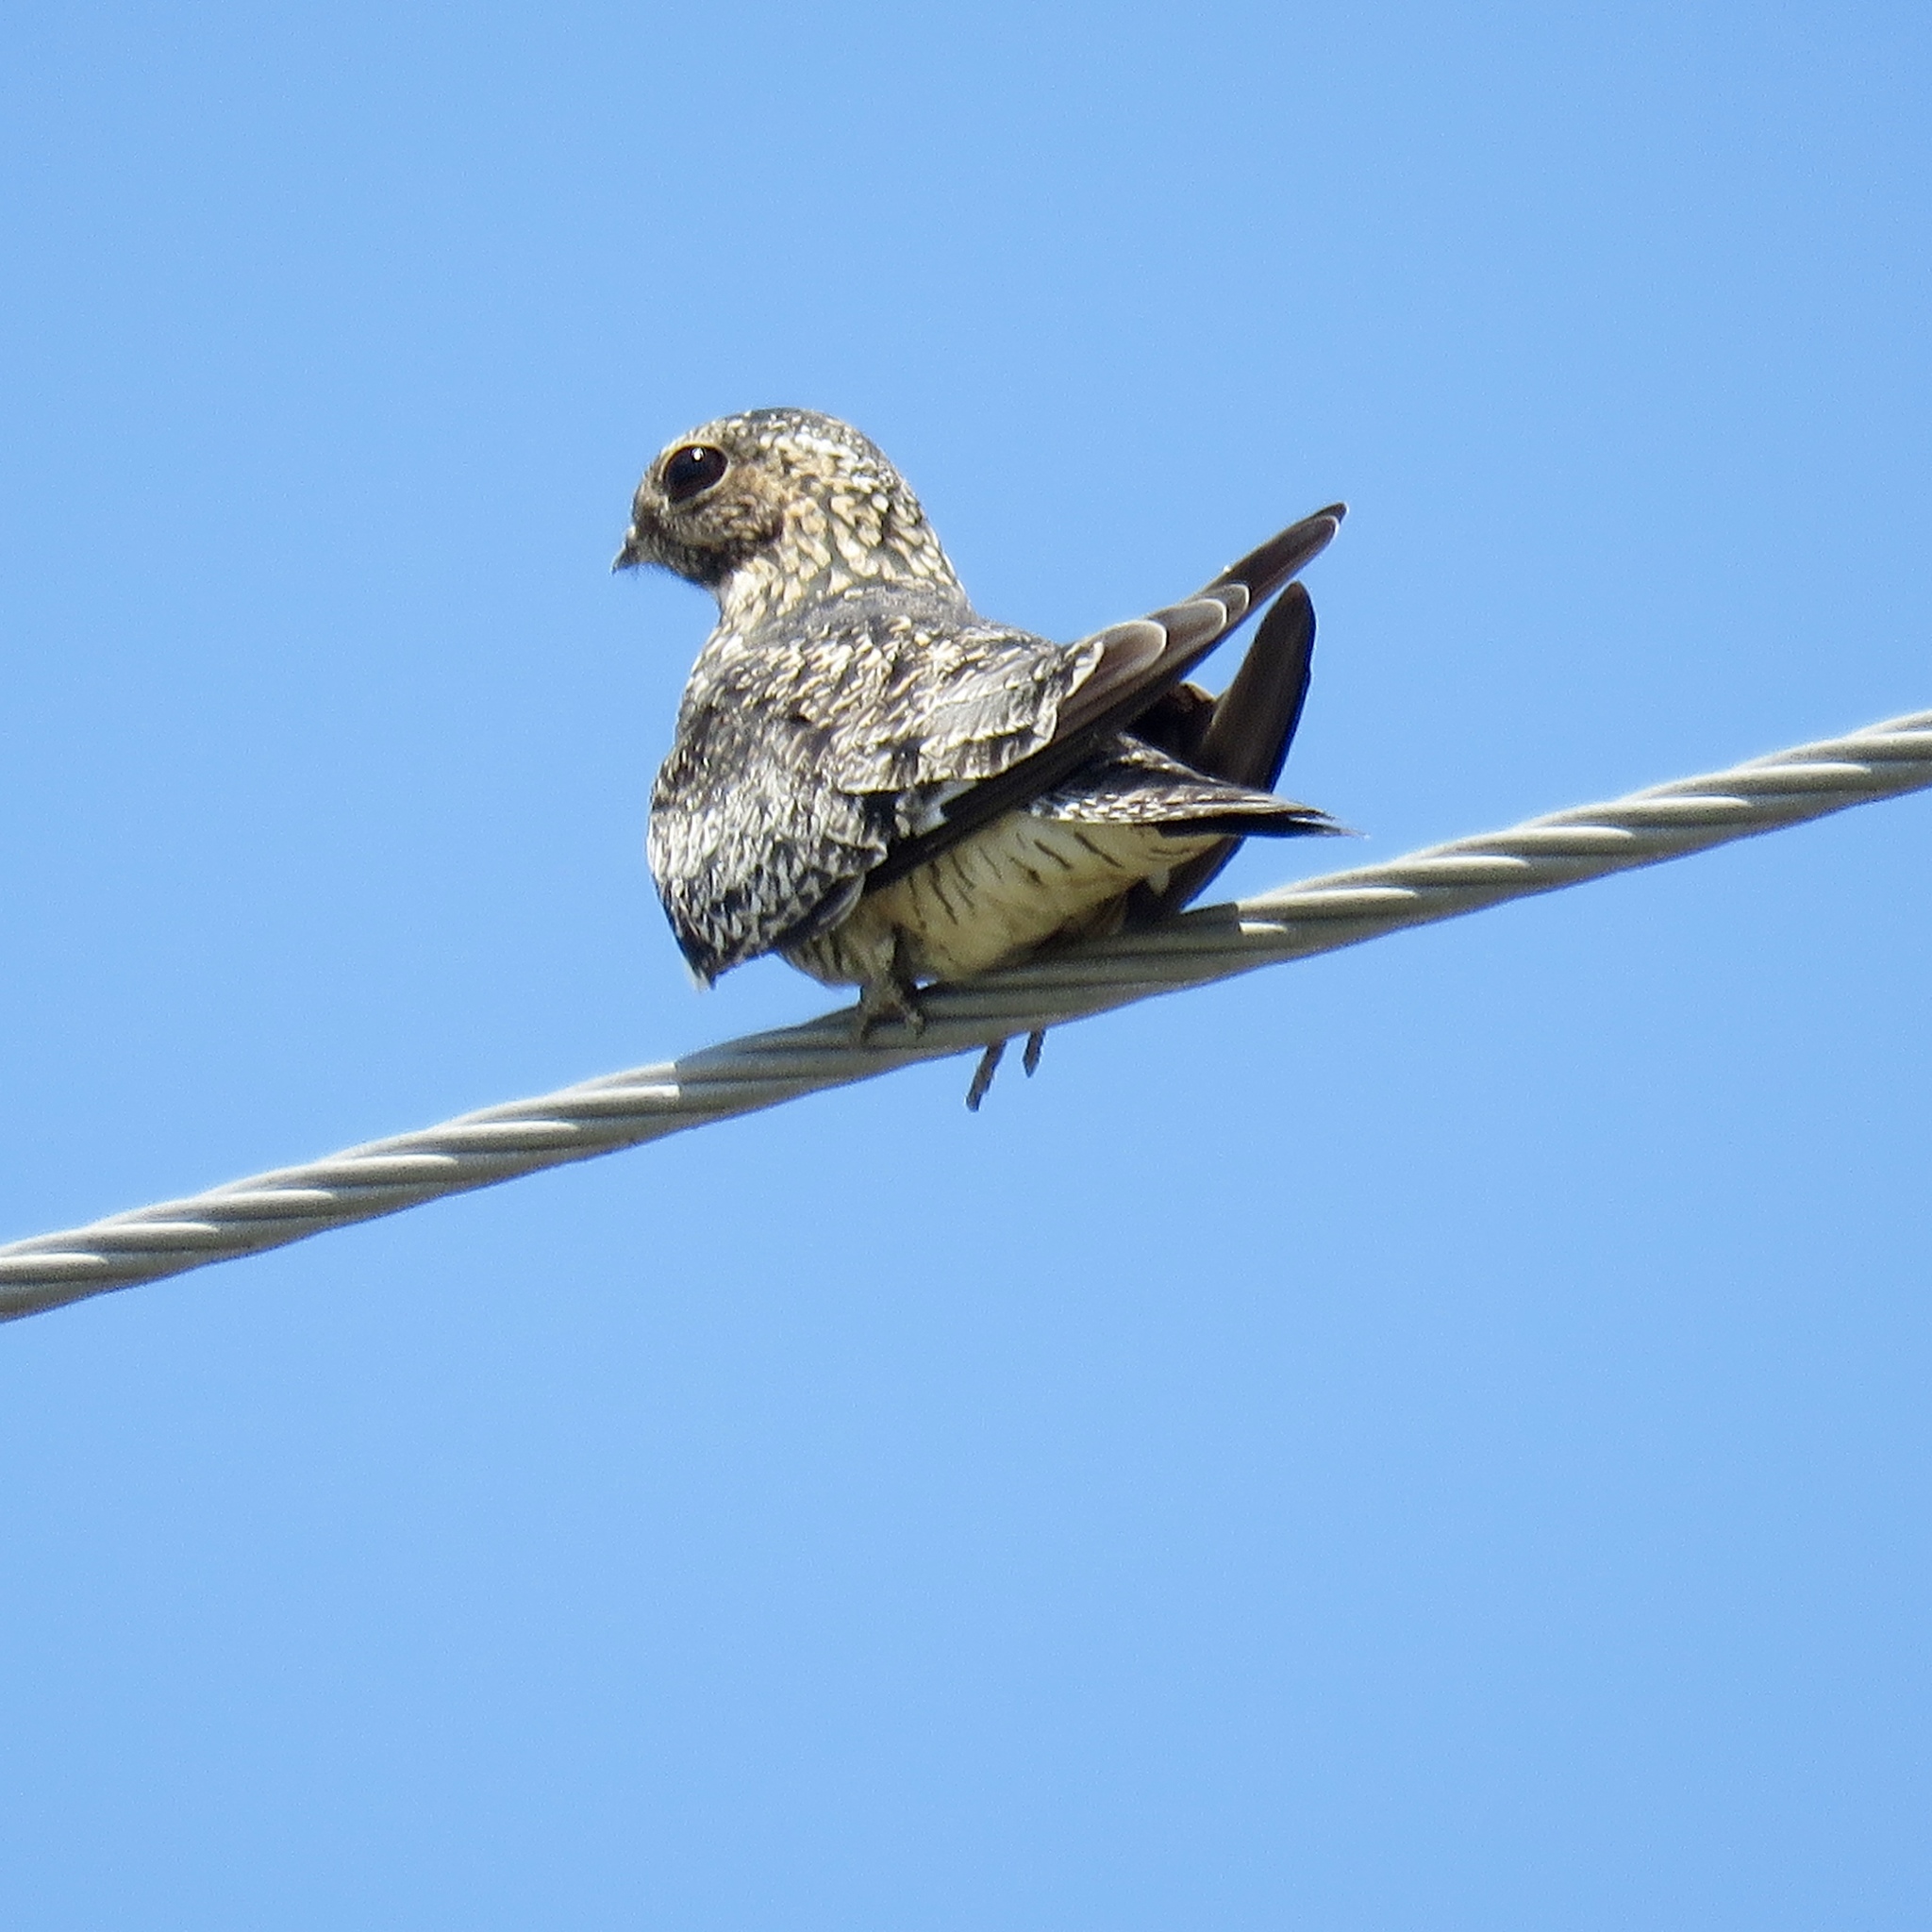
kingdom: Animalia
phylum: Chordata
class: Aves
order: Caprimulgiformes
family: Caprimulgidae
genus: Chordeiles
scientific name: Chordeiles minor
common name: Common nighthawk
